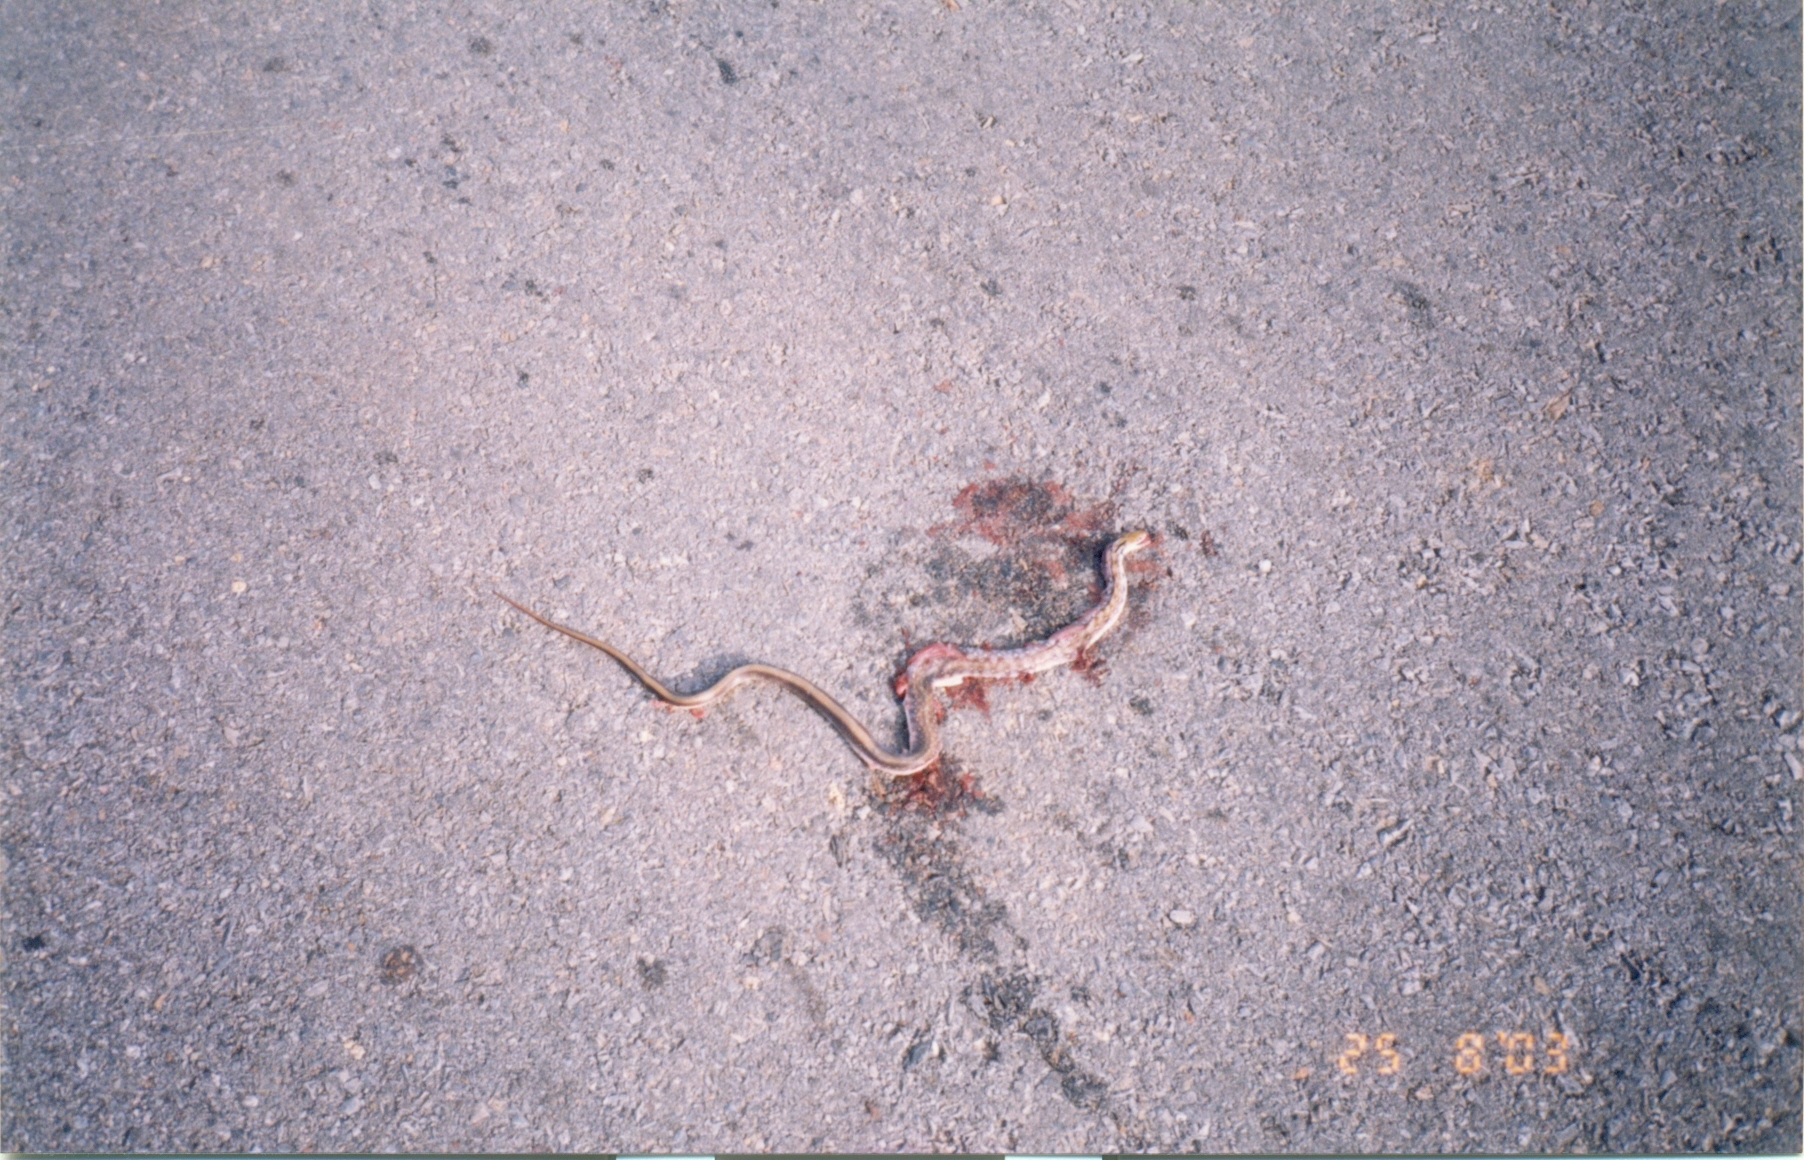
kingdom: Animalia
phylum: Chordata
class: Squamata
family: Colubridae
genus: Coelognathus
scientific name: Coelognathus helena
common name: Trinket snake
